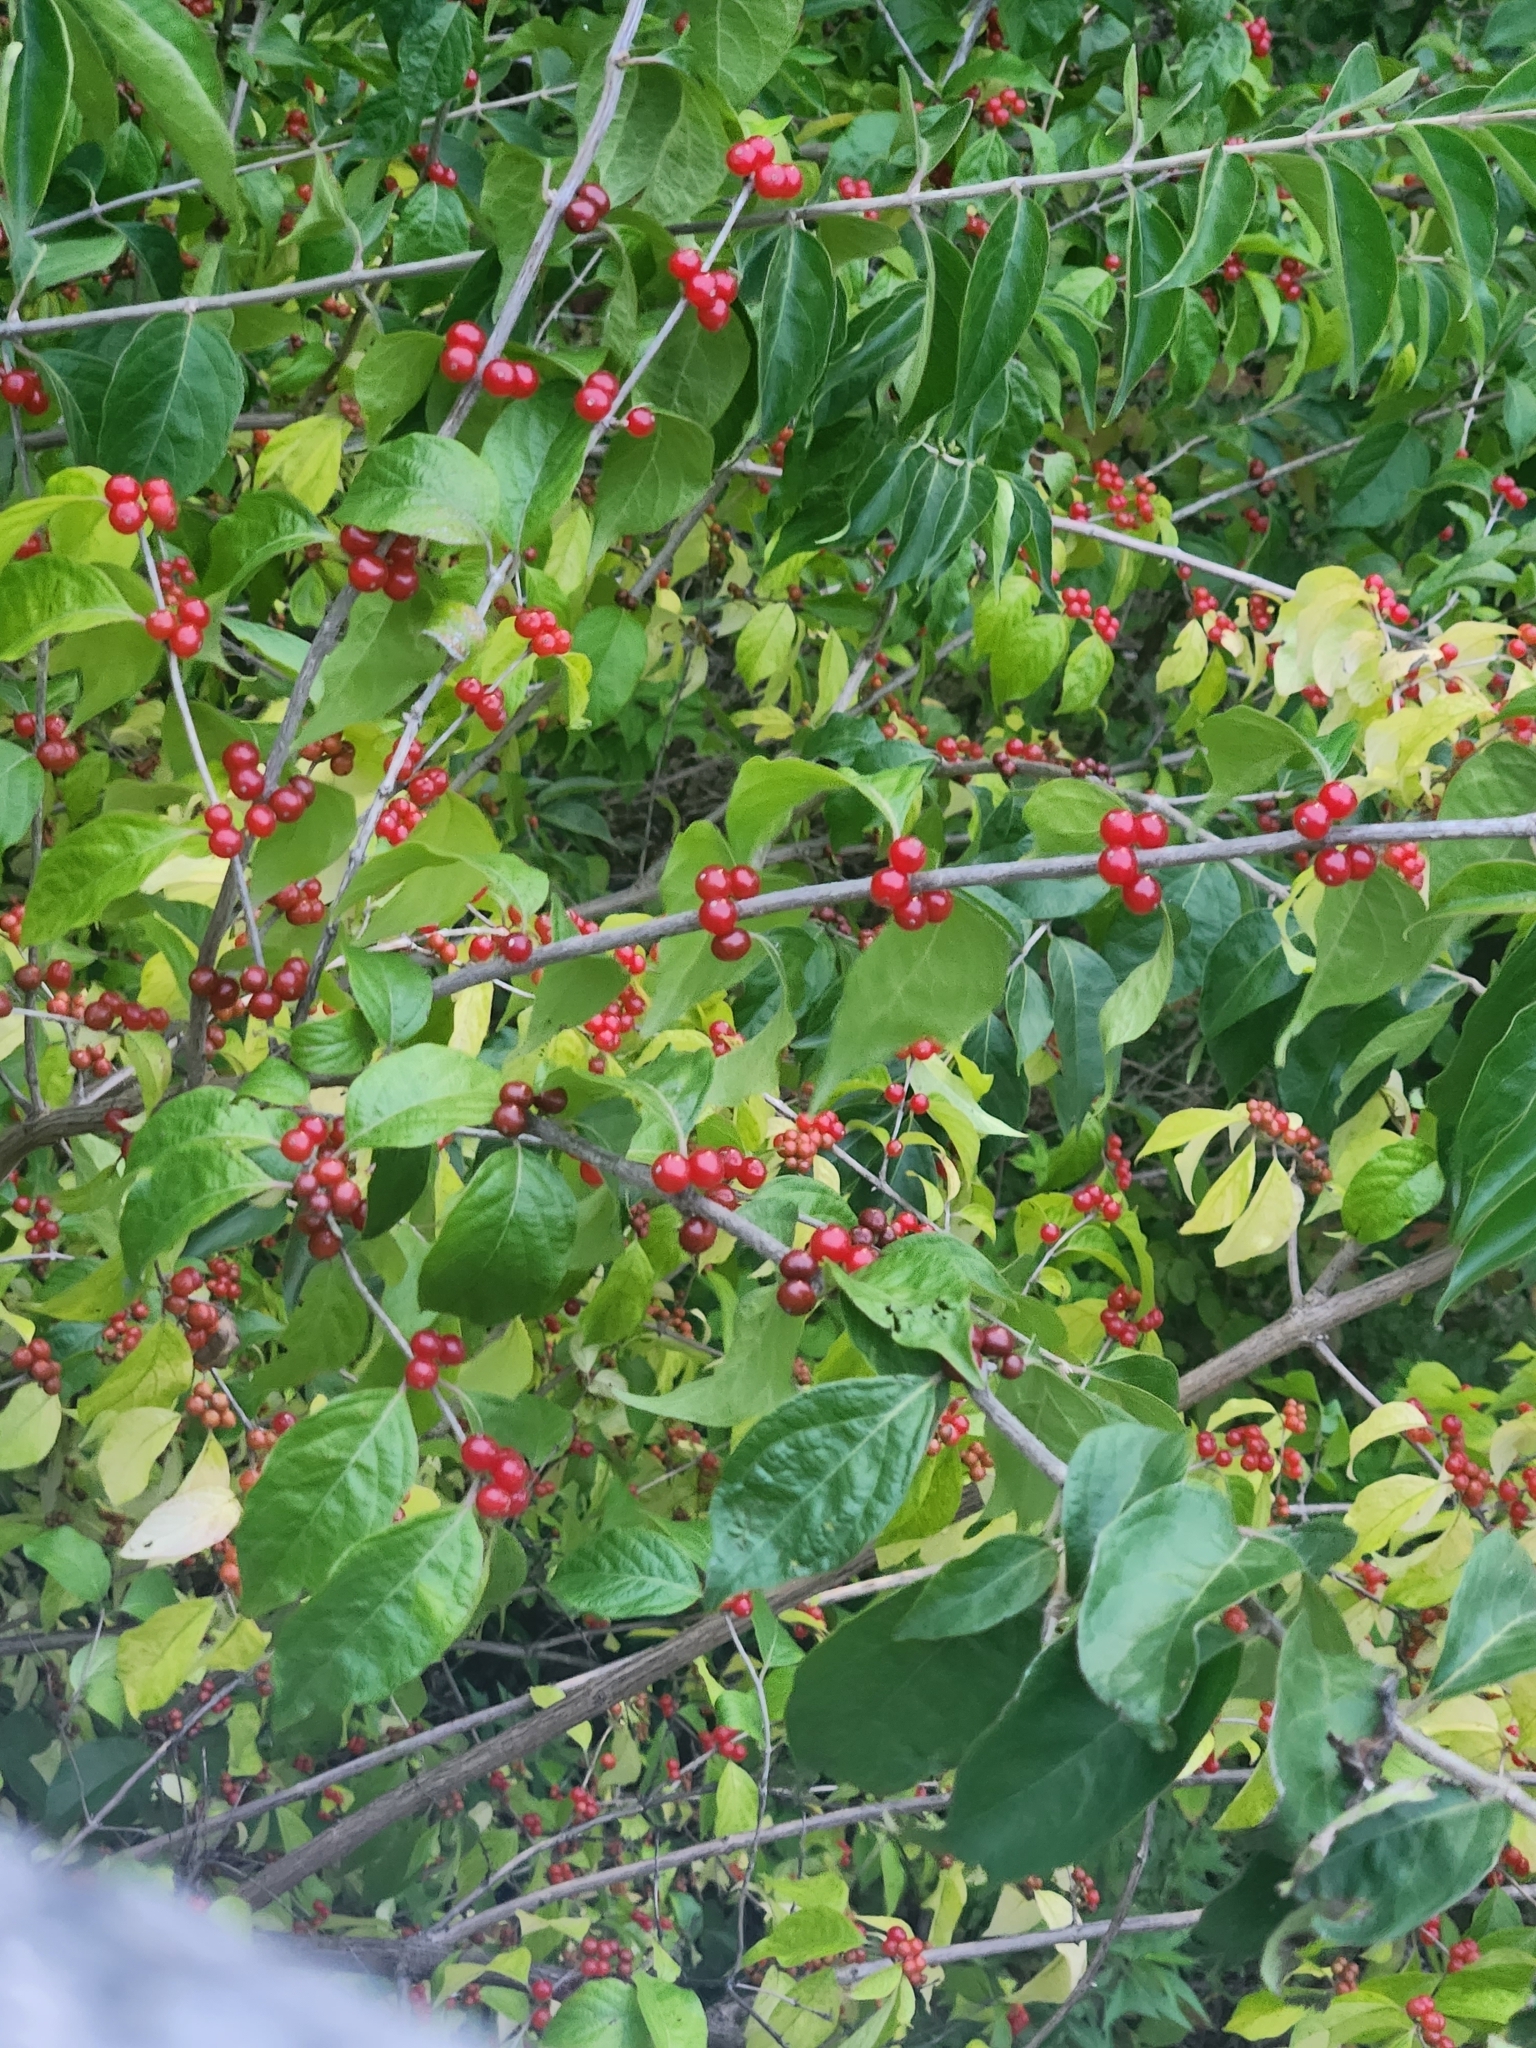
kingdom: Plantae
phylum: Tracheophyta
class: Magnoliopsida
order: Dipsacales
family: Caprifoliaceae
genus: Lonicera
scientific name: Lonicera maackii
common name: Amur honeysuckle
